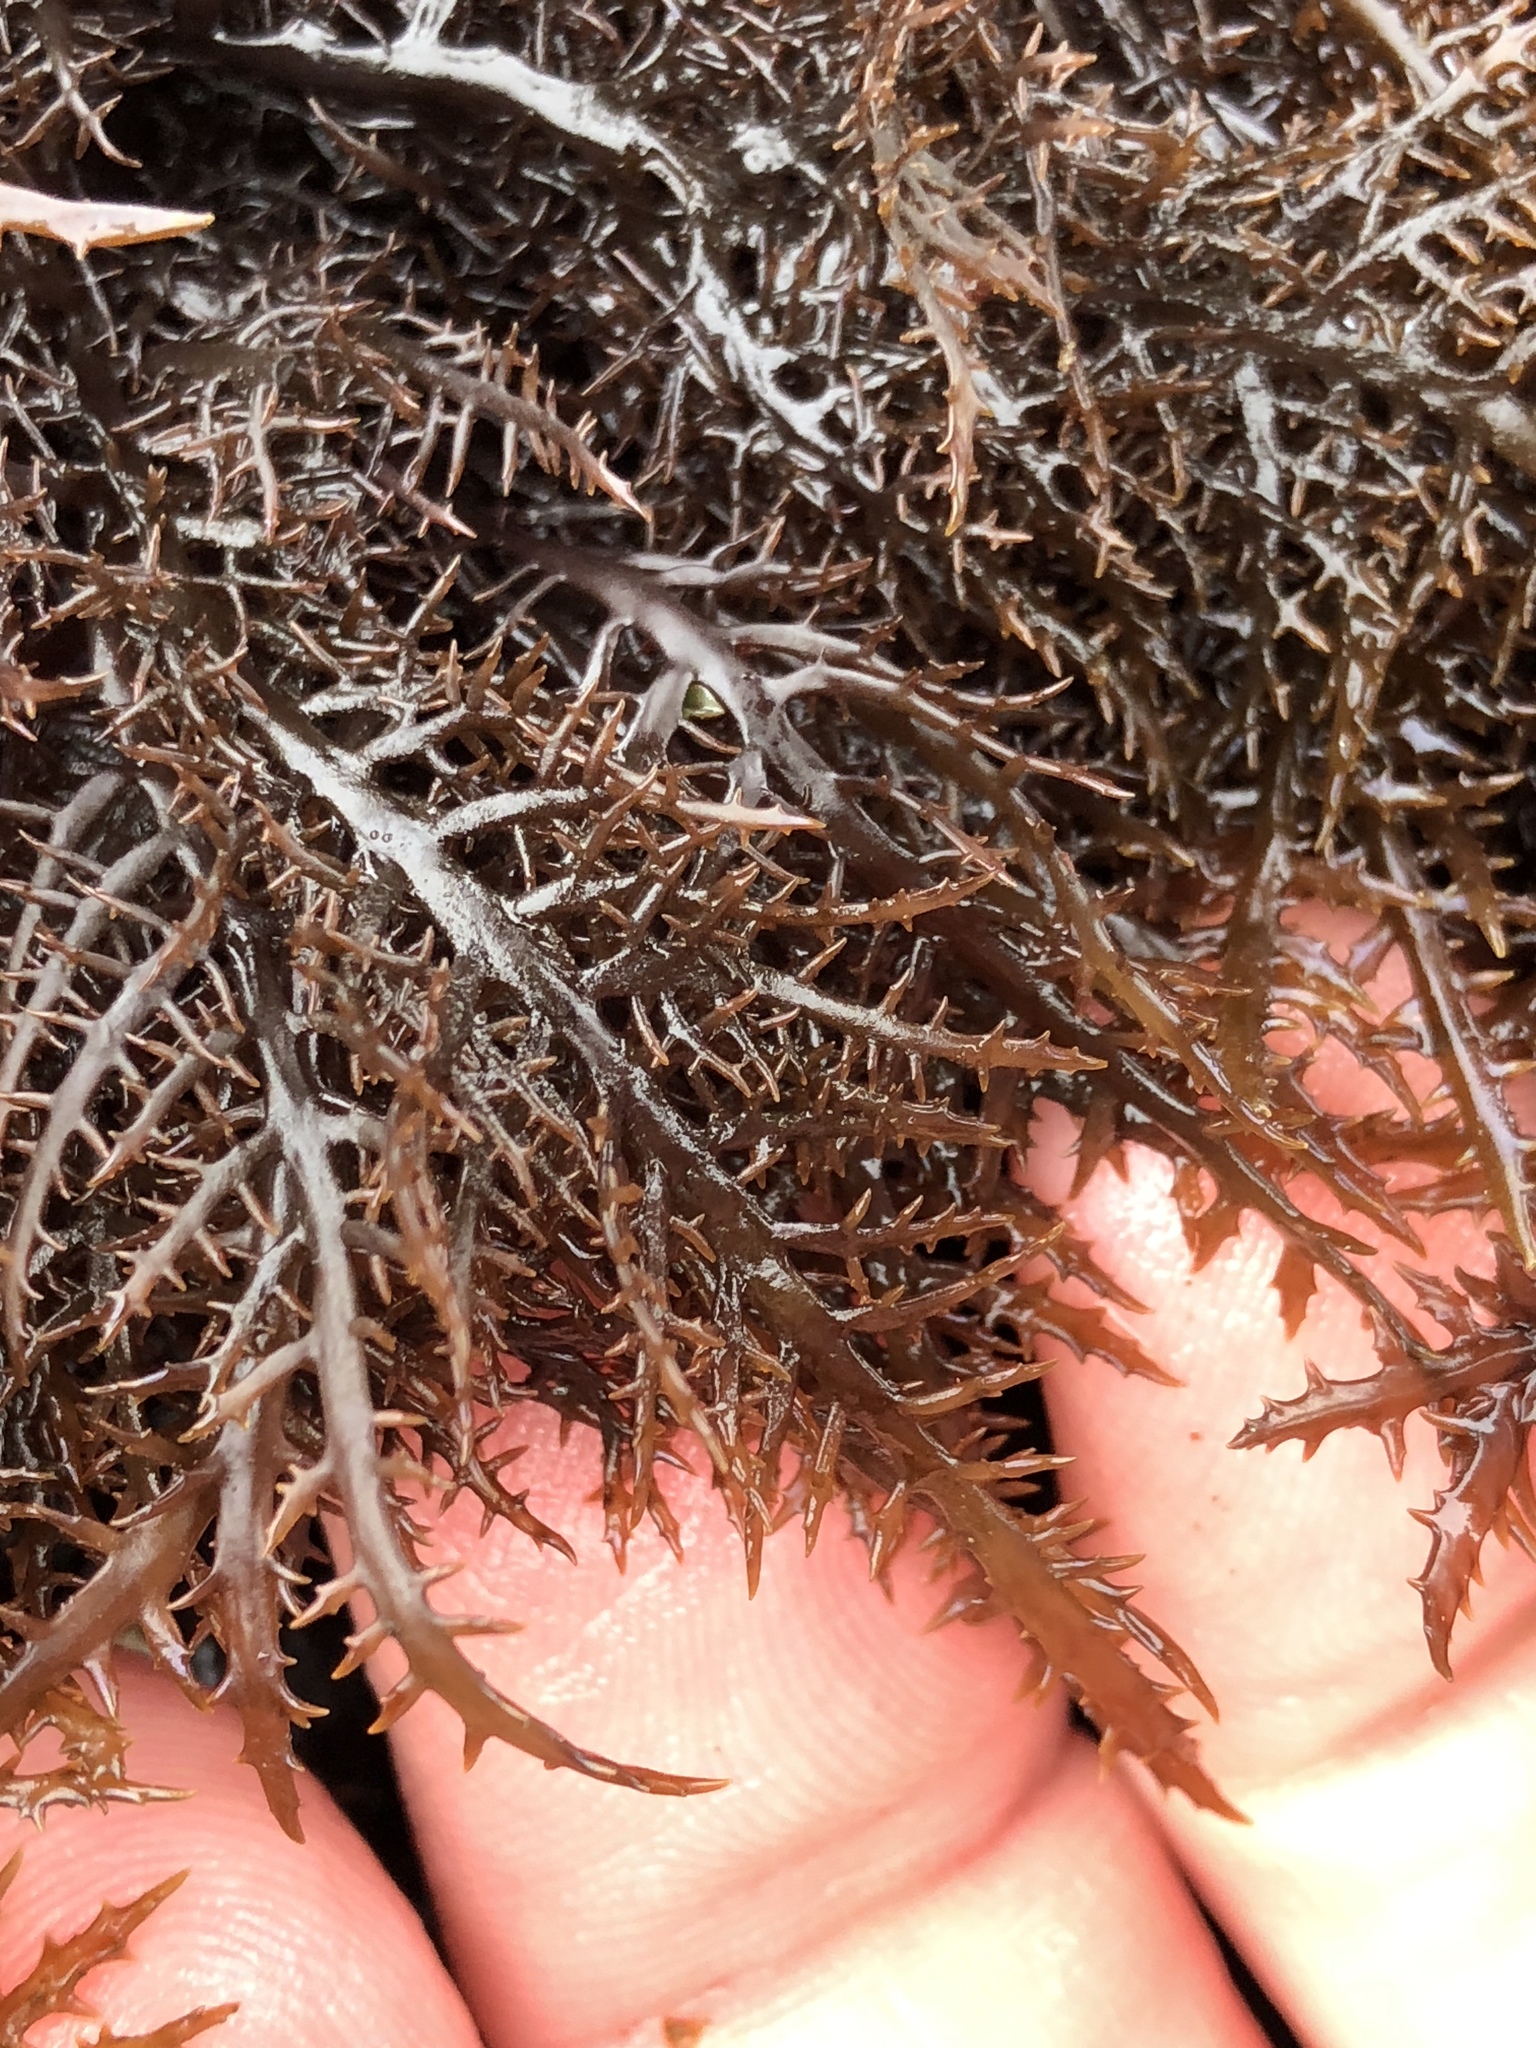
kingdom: Plantae
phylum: Rhodophyta
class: Florideophyceae
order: Gigartinales
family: Gigartinaceae
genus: Chondracanthus
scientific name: Chondracanthus canaliculatus
